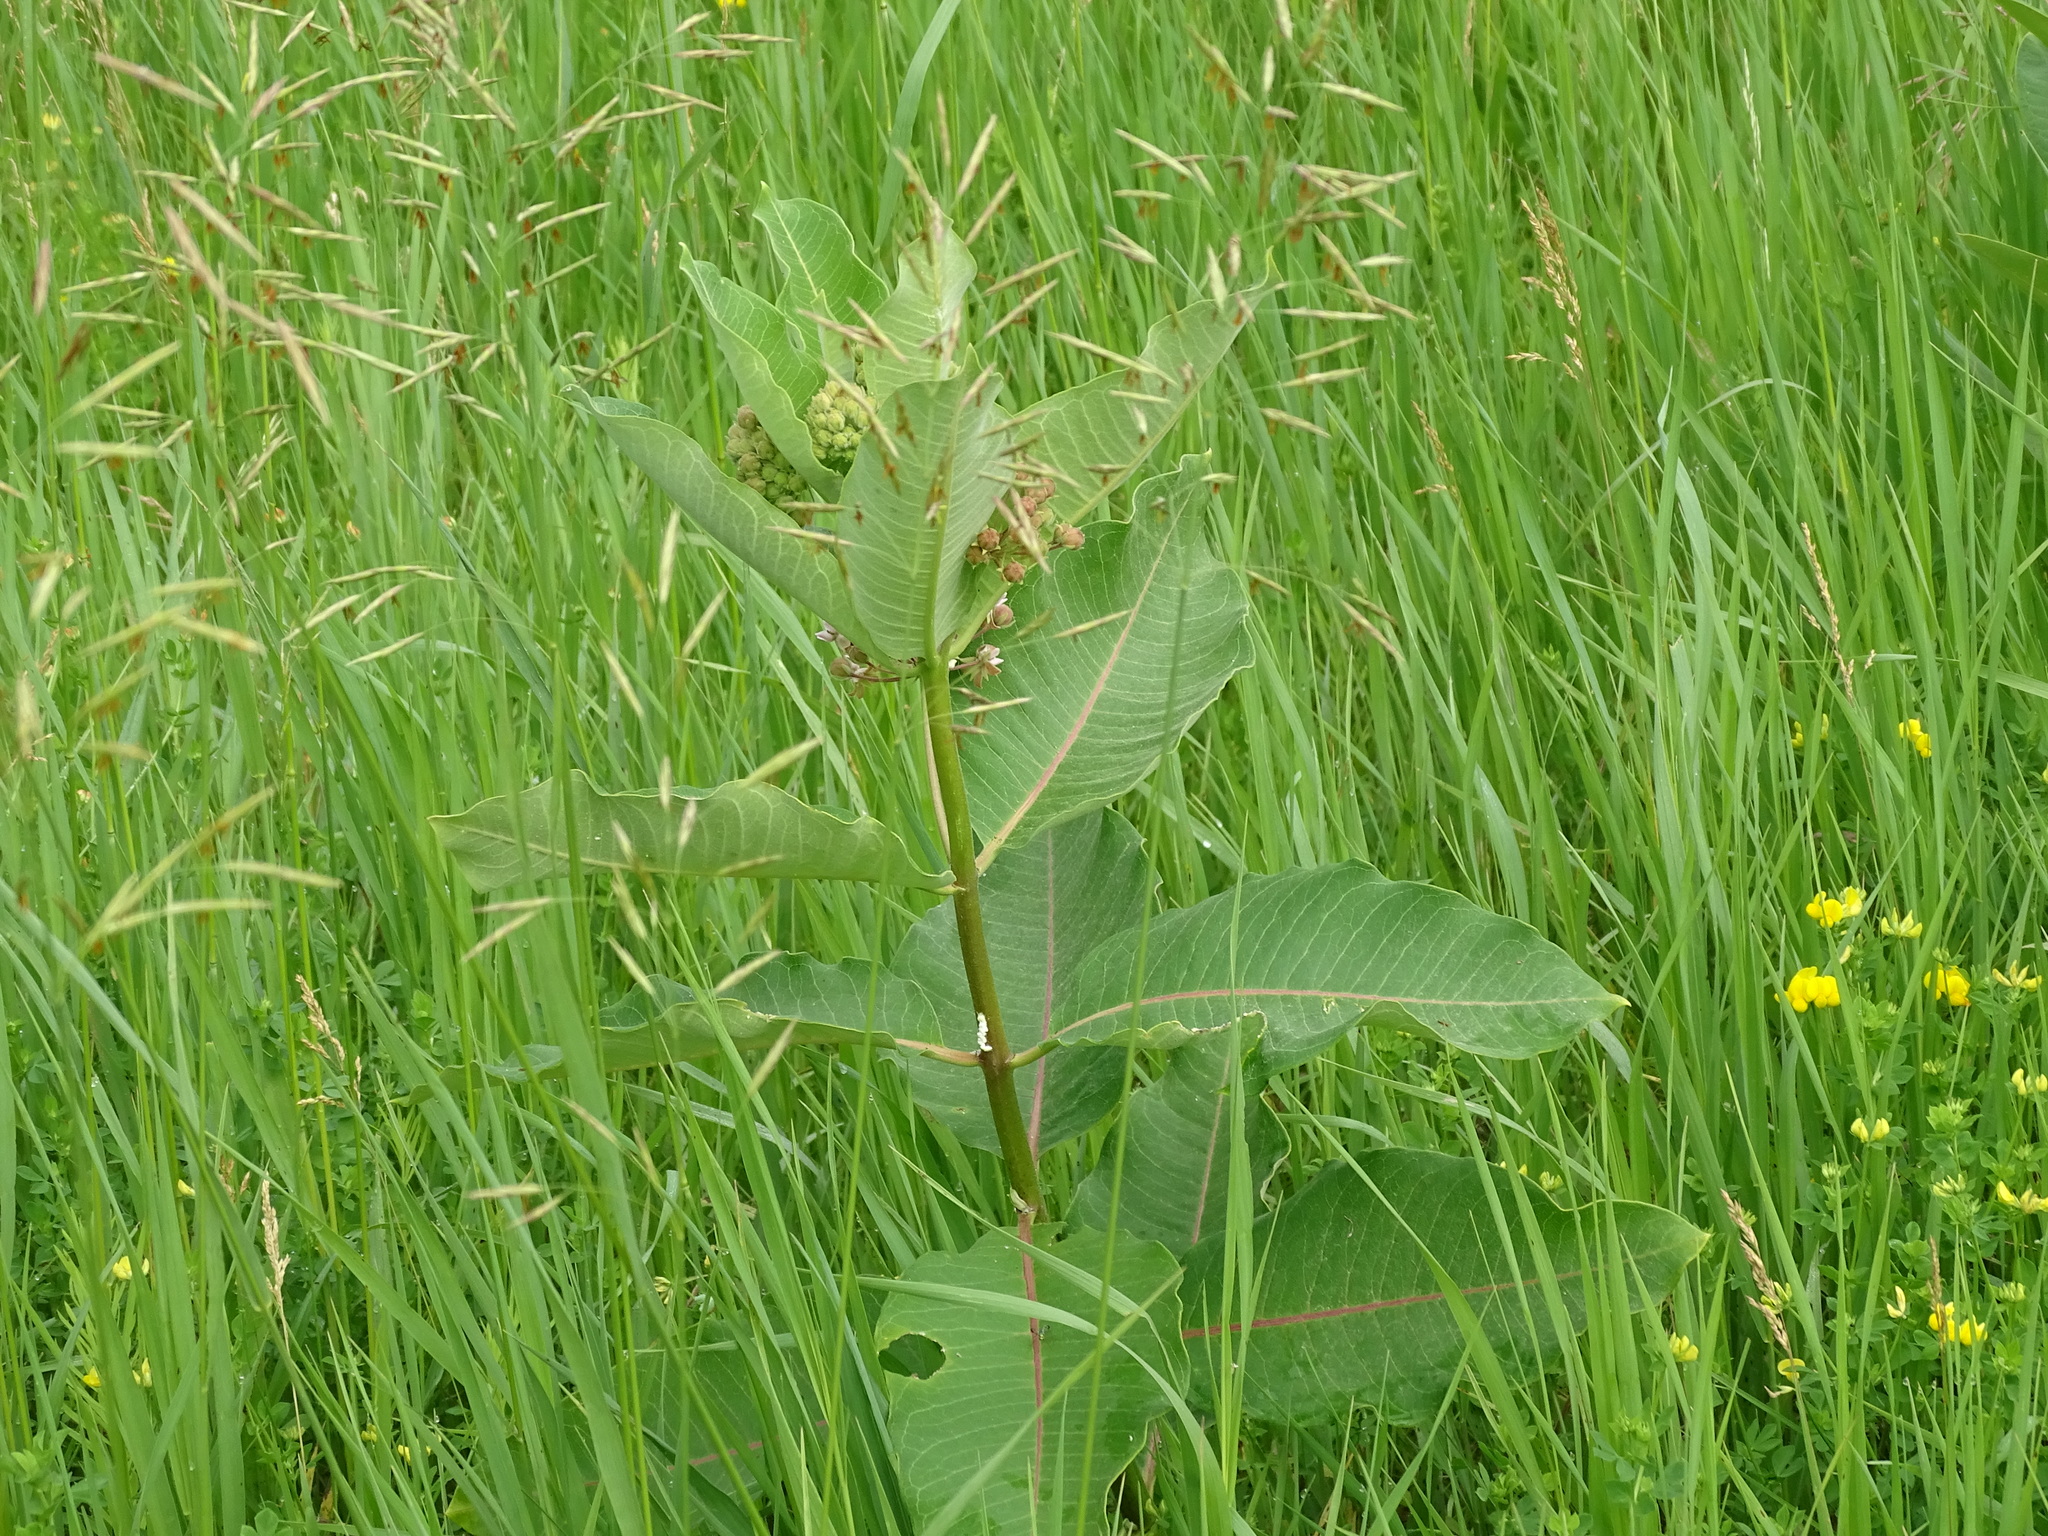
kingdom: Plantae
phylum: Tracheophyta
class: Magnoliopsida
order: Gentianales
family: Apocynaceae
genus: Asclepias
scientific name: Asclepias syriaca
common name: Common milkweed
